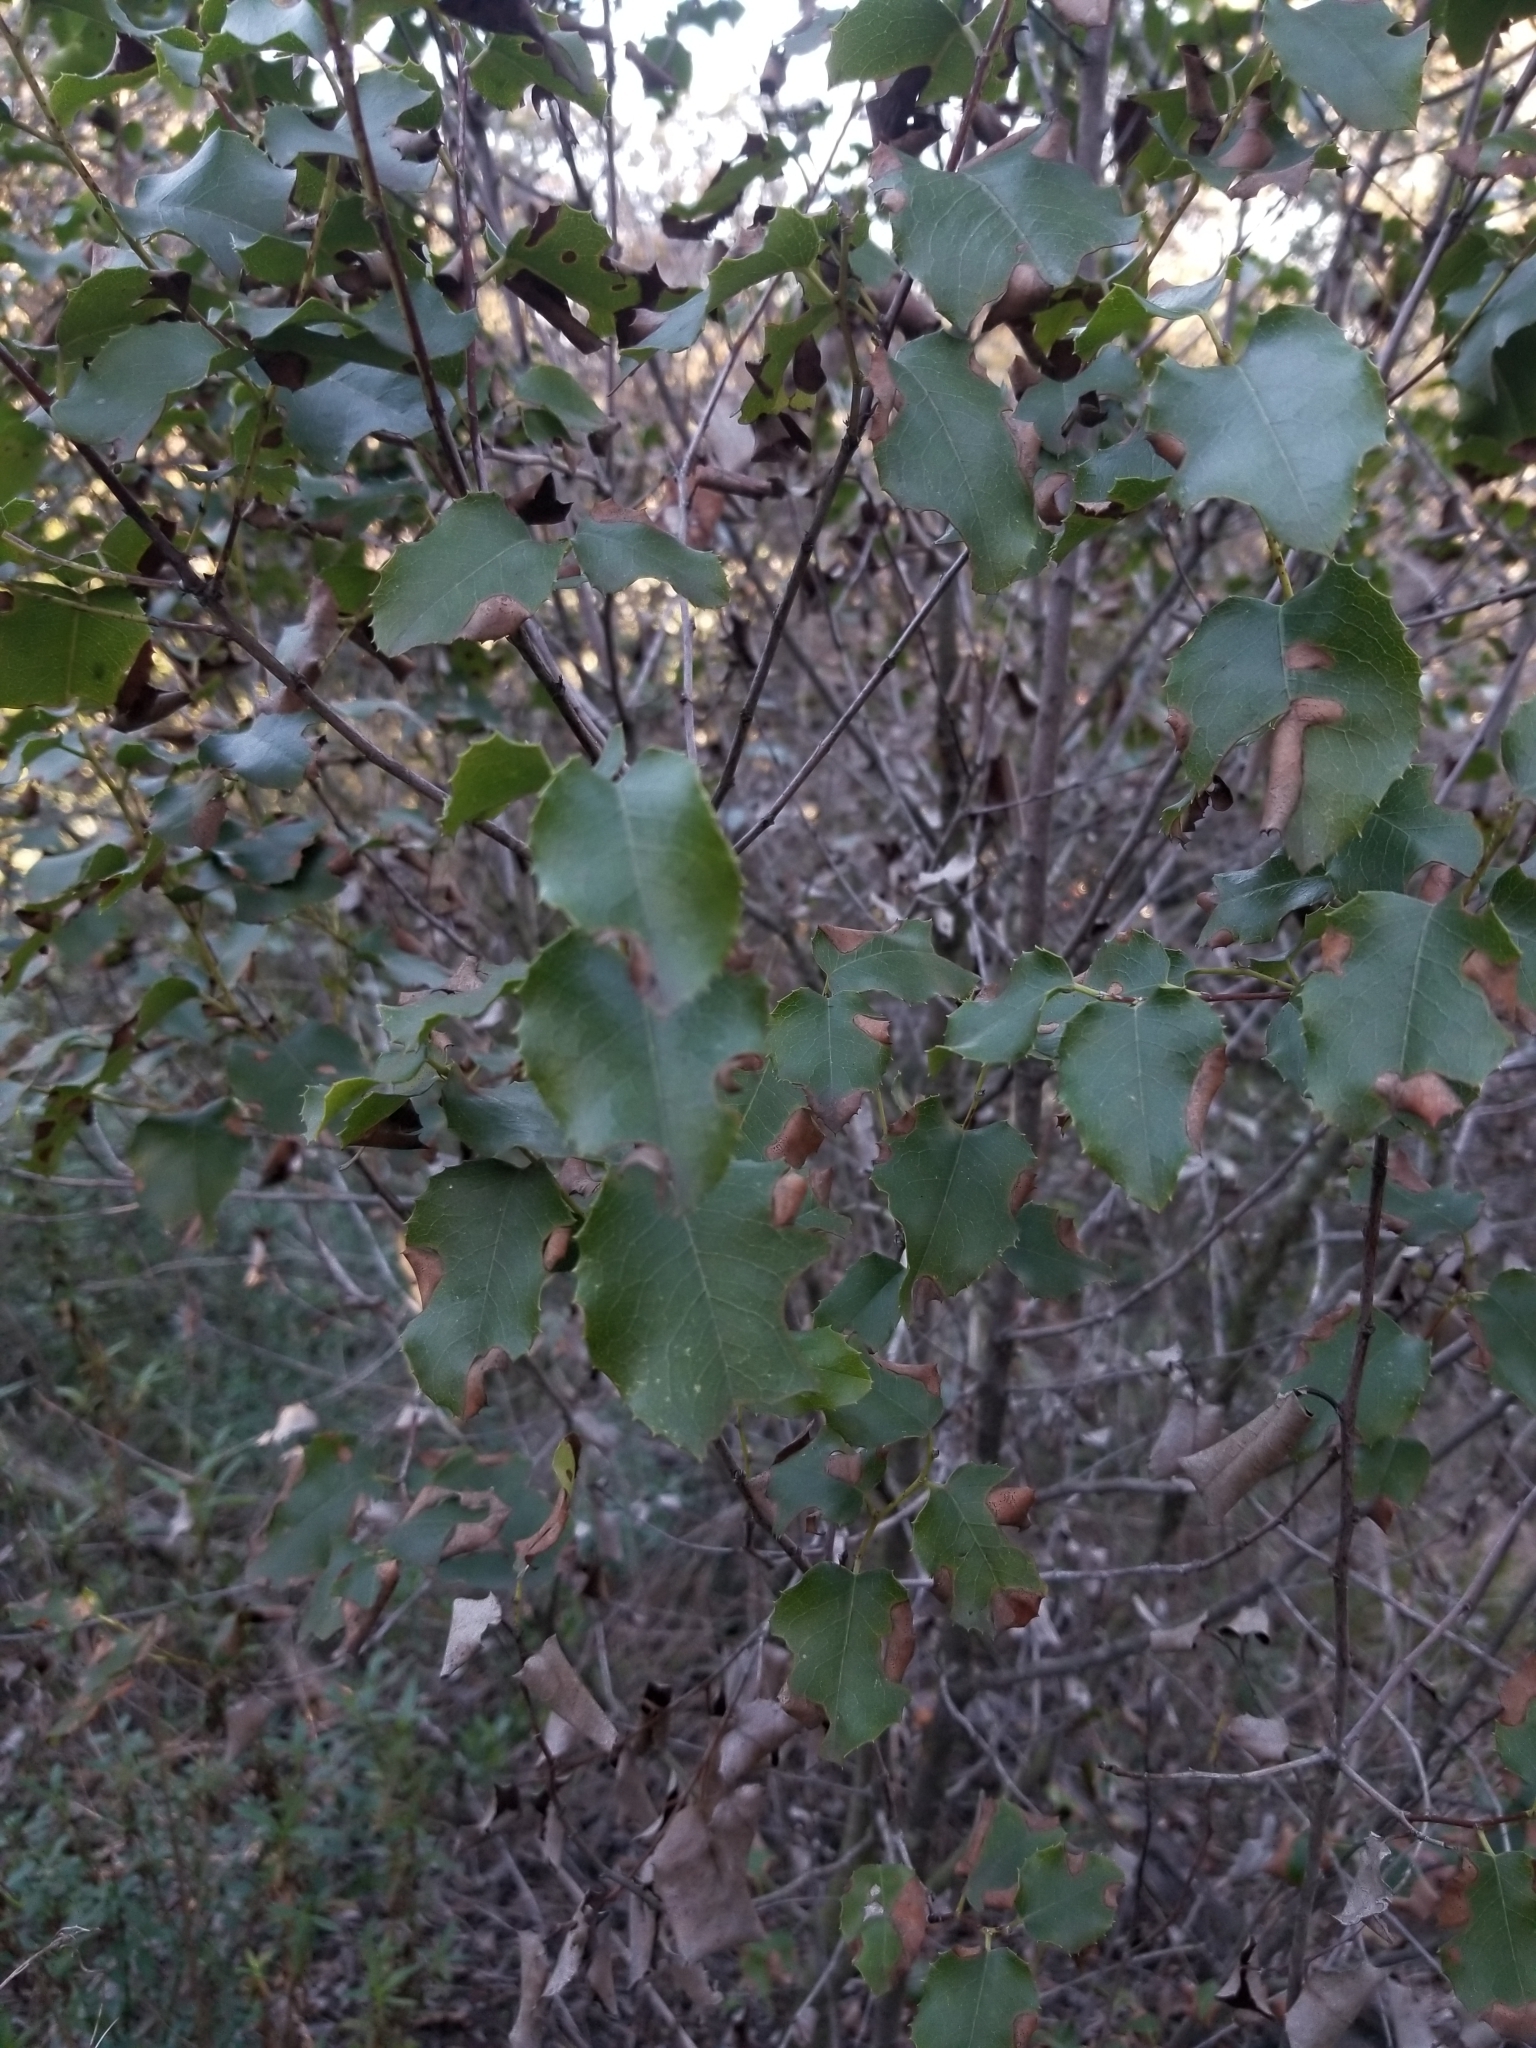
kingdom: Plantae
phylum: Tracheophyta
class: Magnoliopsida
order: Rosales
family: Rosaceae
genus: Prunus
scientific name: Prunus ilicifolia
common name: Hollyleaf cherry
